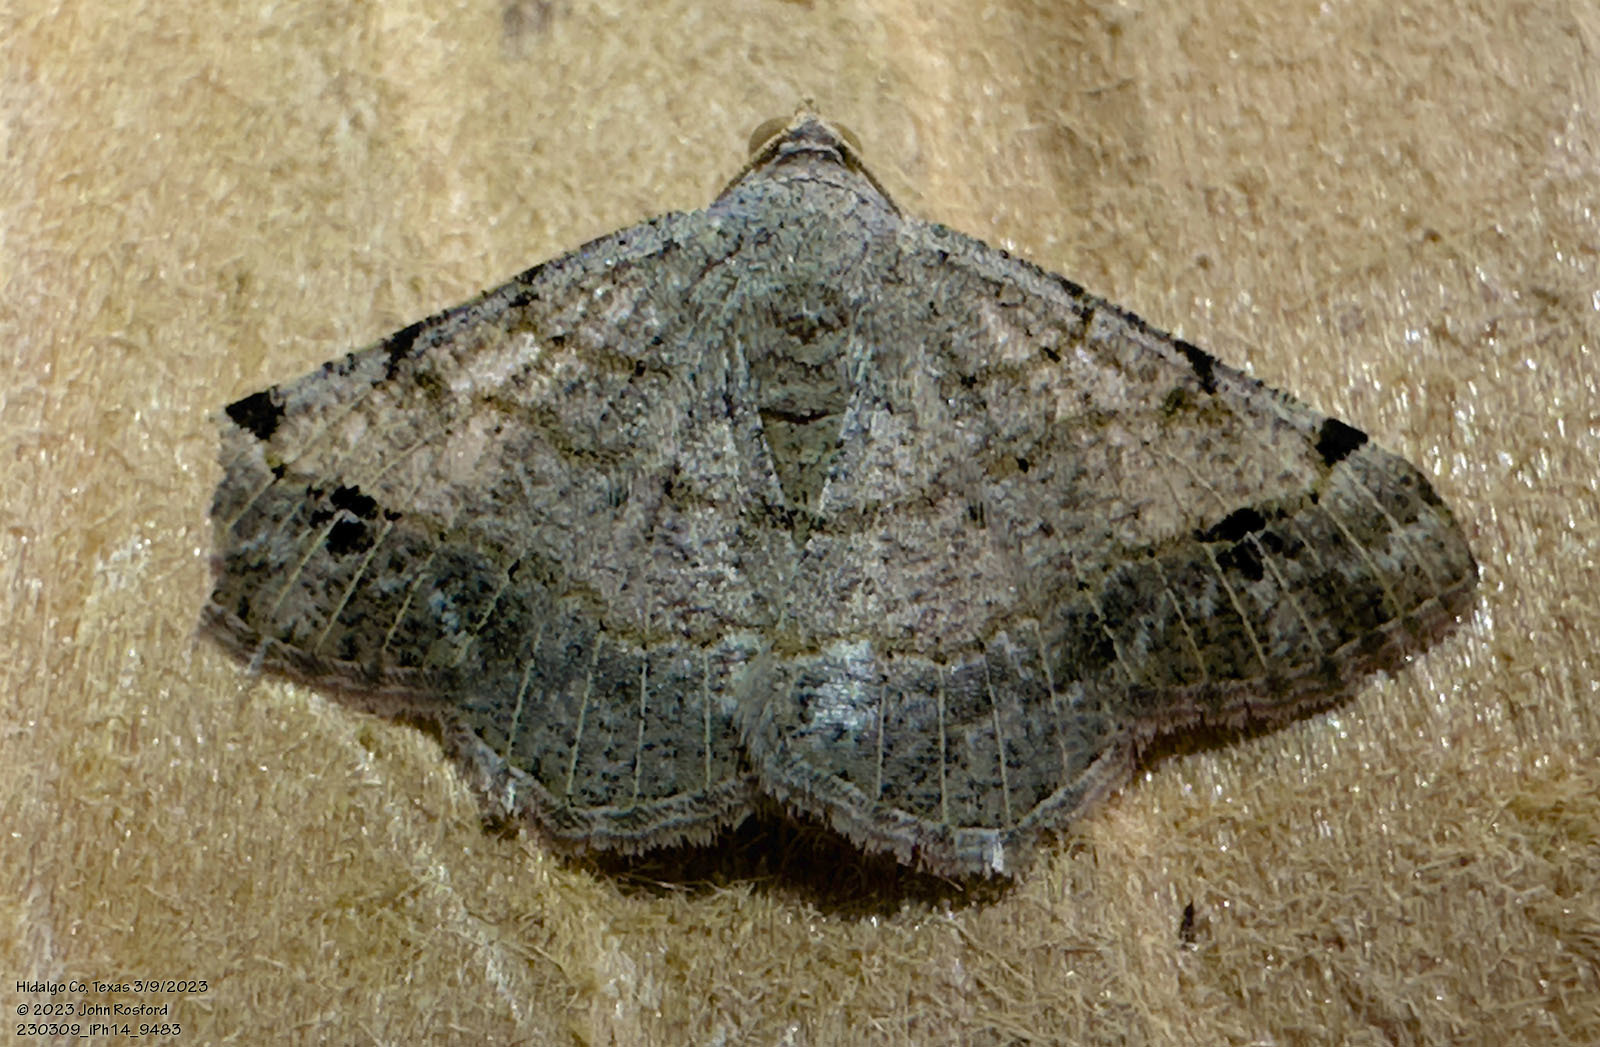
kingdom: Animalia
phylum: Arthropoda
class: Insecta
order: Lepidoptera
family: Geometridae
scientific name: Geometridae
